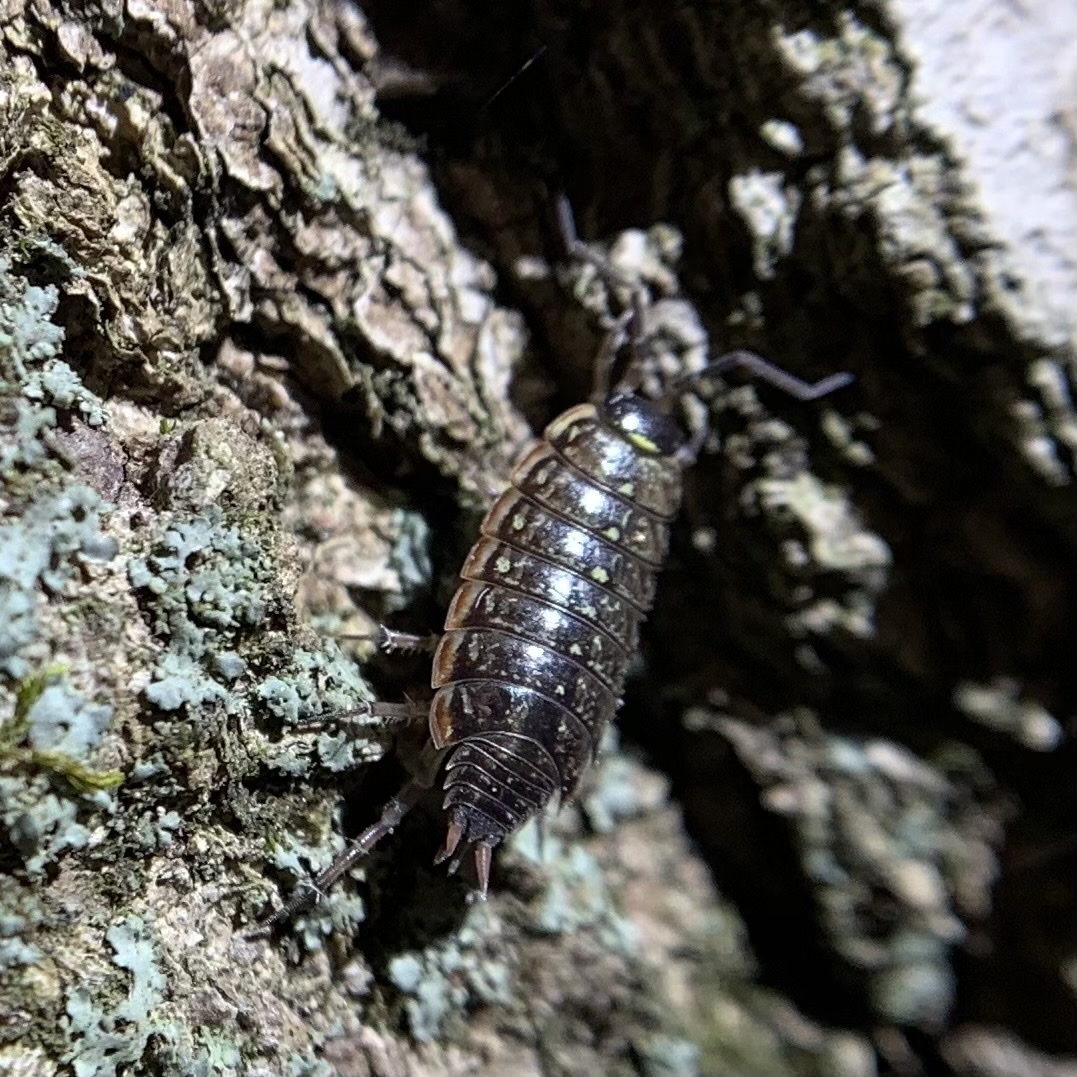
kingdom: Animalia
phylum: Arthropoda
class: Malacostraca
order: Isopoda
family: Philosciidae
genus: Philoscia
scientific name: Philoscia muscorum
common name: Common striped woodlouse
